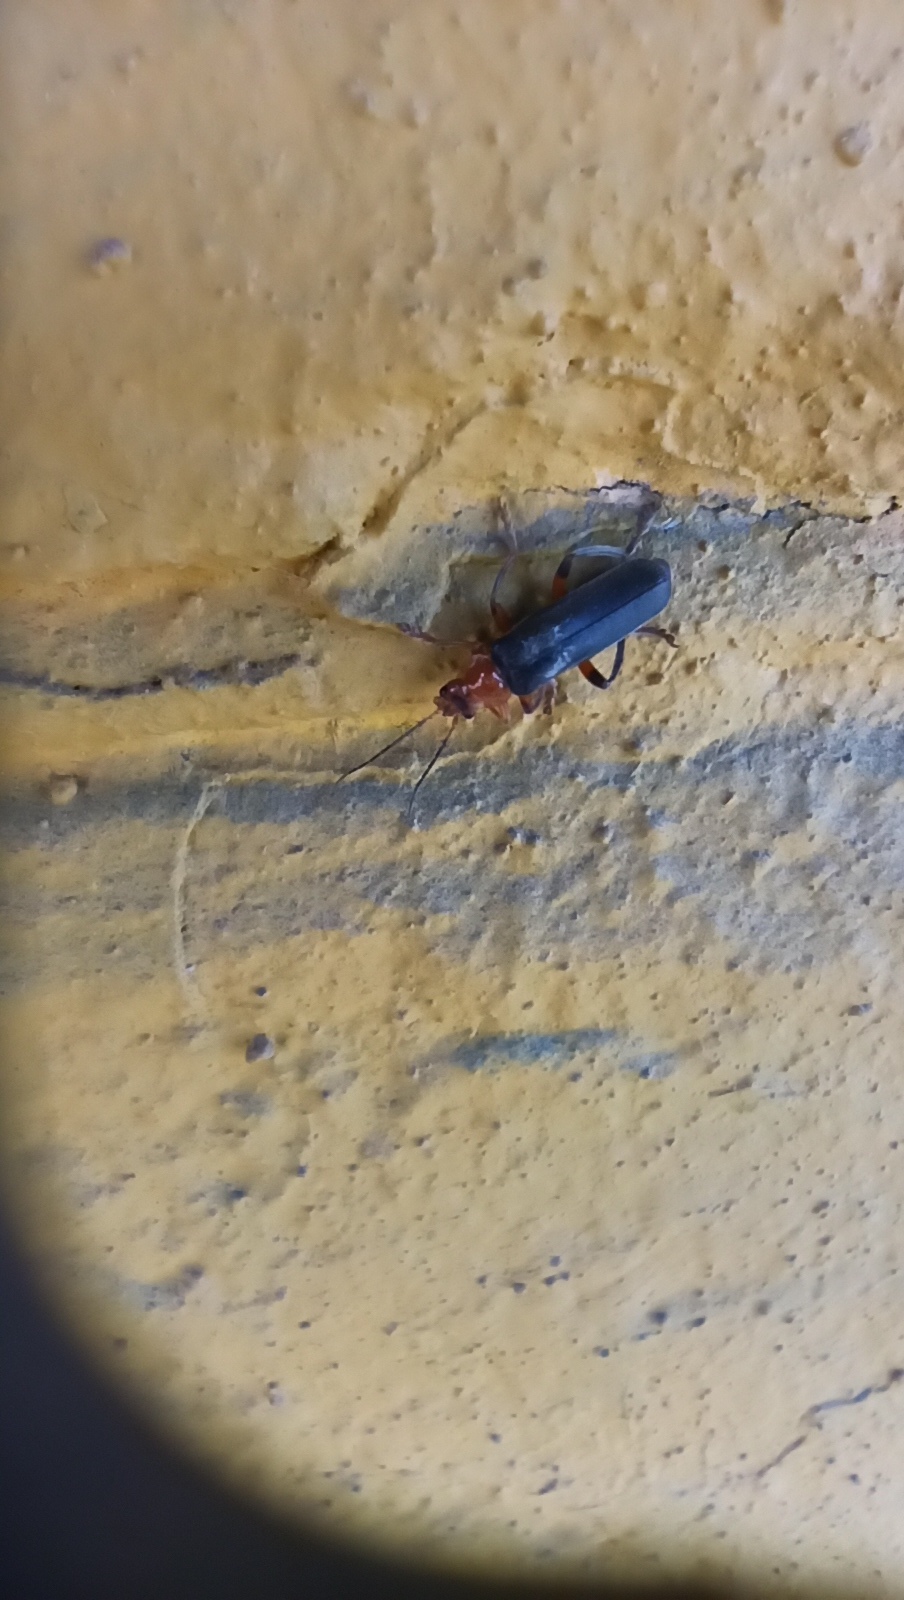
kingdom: Animalia
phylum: Arthropoda
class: Insecta
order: Coleoptera
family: Cantharidae
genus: Cantharis
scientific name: Cantharis livida
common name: Livid soldier beetle
